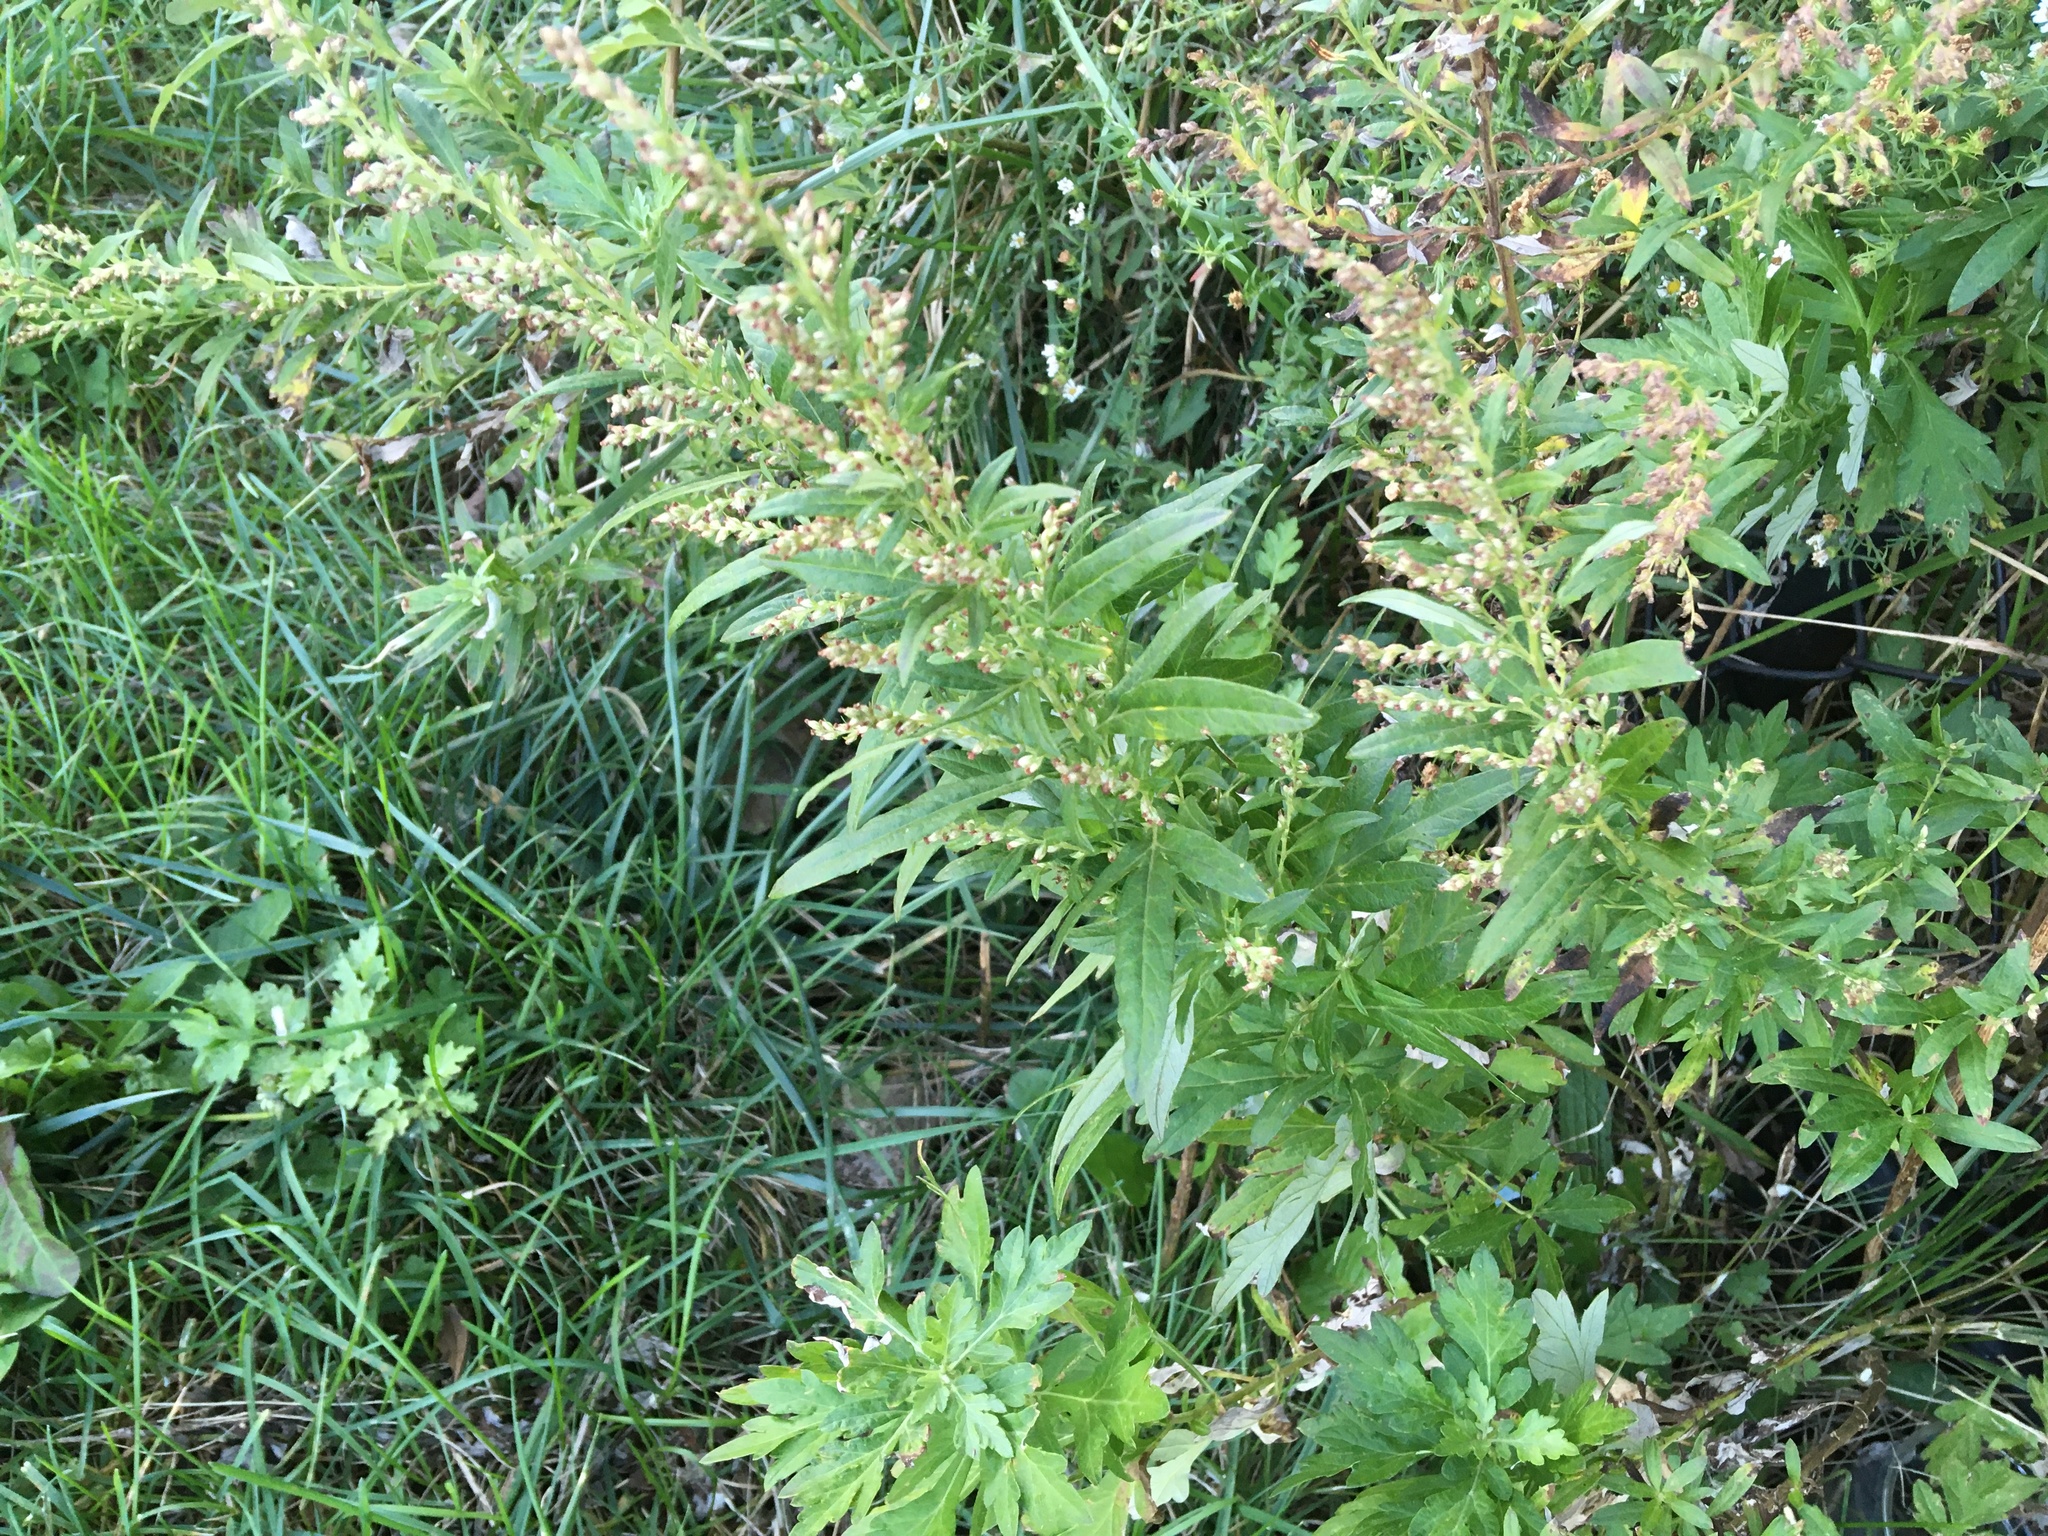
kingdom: Plantae
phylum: Tracheophyta
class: Magnoliopsida
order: Asterales
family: Asteraceae
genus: Artemisia
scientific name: Artemisia vulgaris
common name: Mugwort
